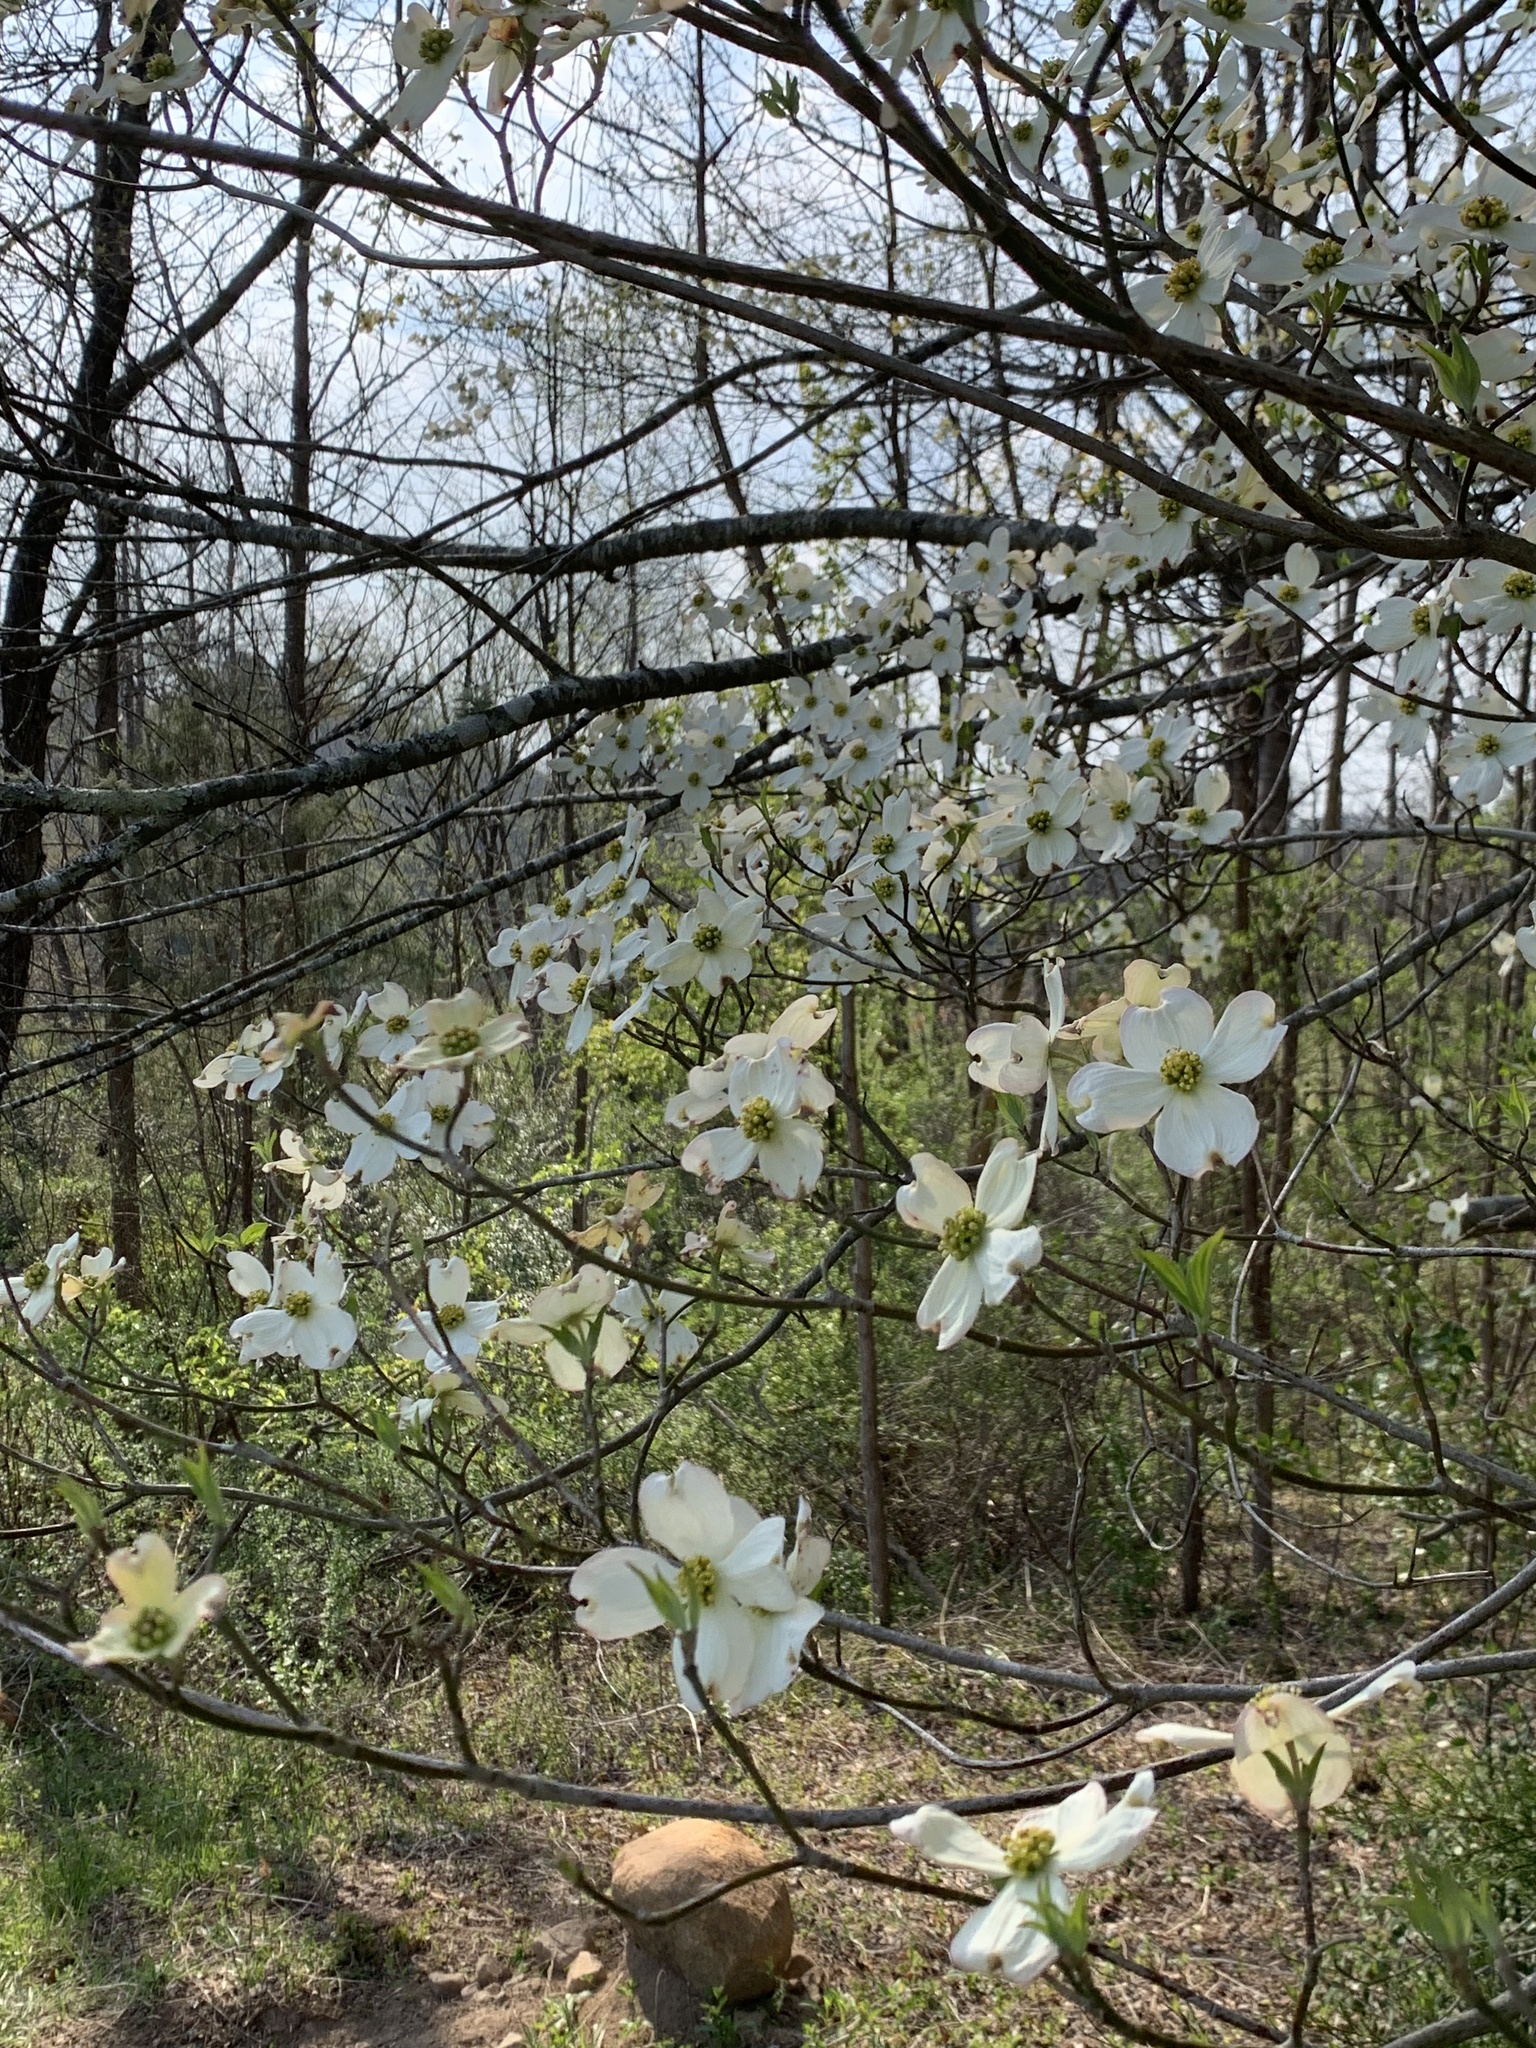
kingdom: Plantae
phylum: Tracheophyta
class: Magnoliopsida
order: Cornales
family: Cornaceae
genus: Cornus
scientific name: Cornus florida
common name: Flowering dogwood
